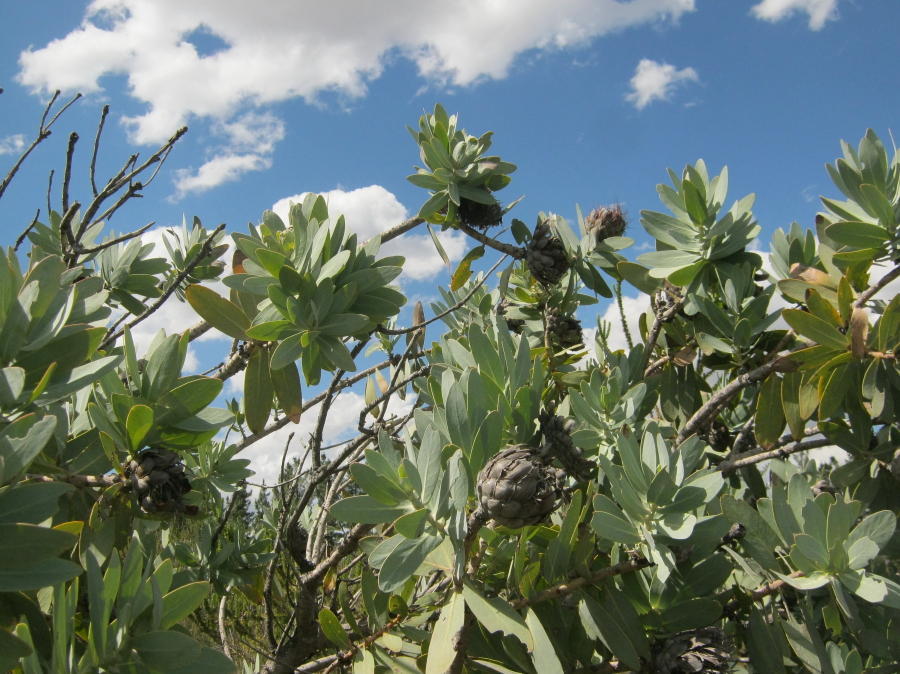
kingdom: Plantae
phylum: Tracheophyta
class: Magnoliopsida
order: Proteales
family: Proteaceae
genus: Protea
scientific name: Protea nitida
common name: Tree protea
